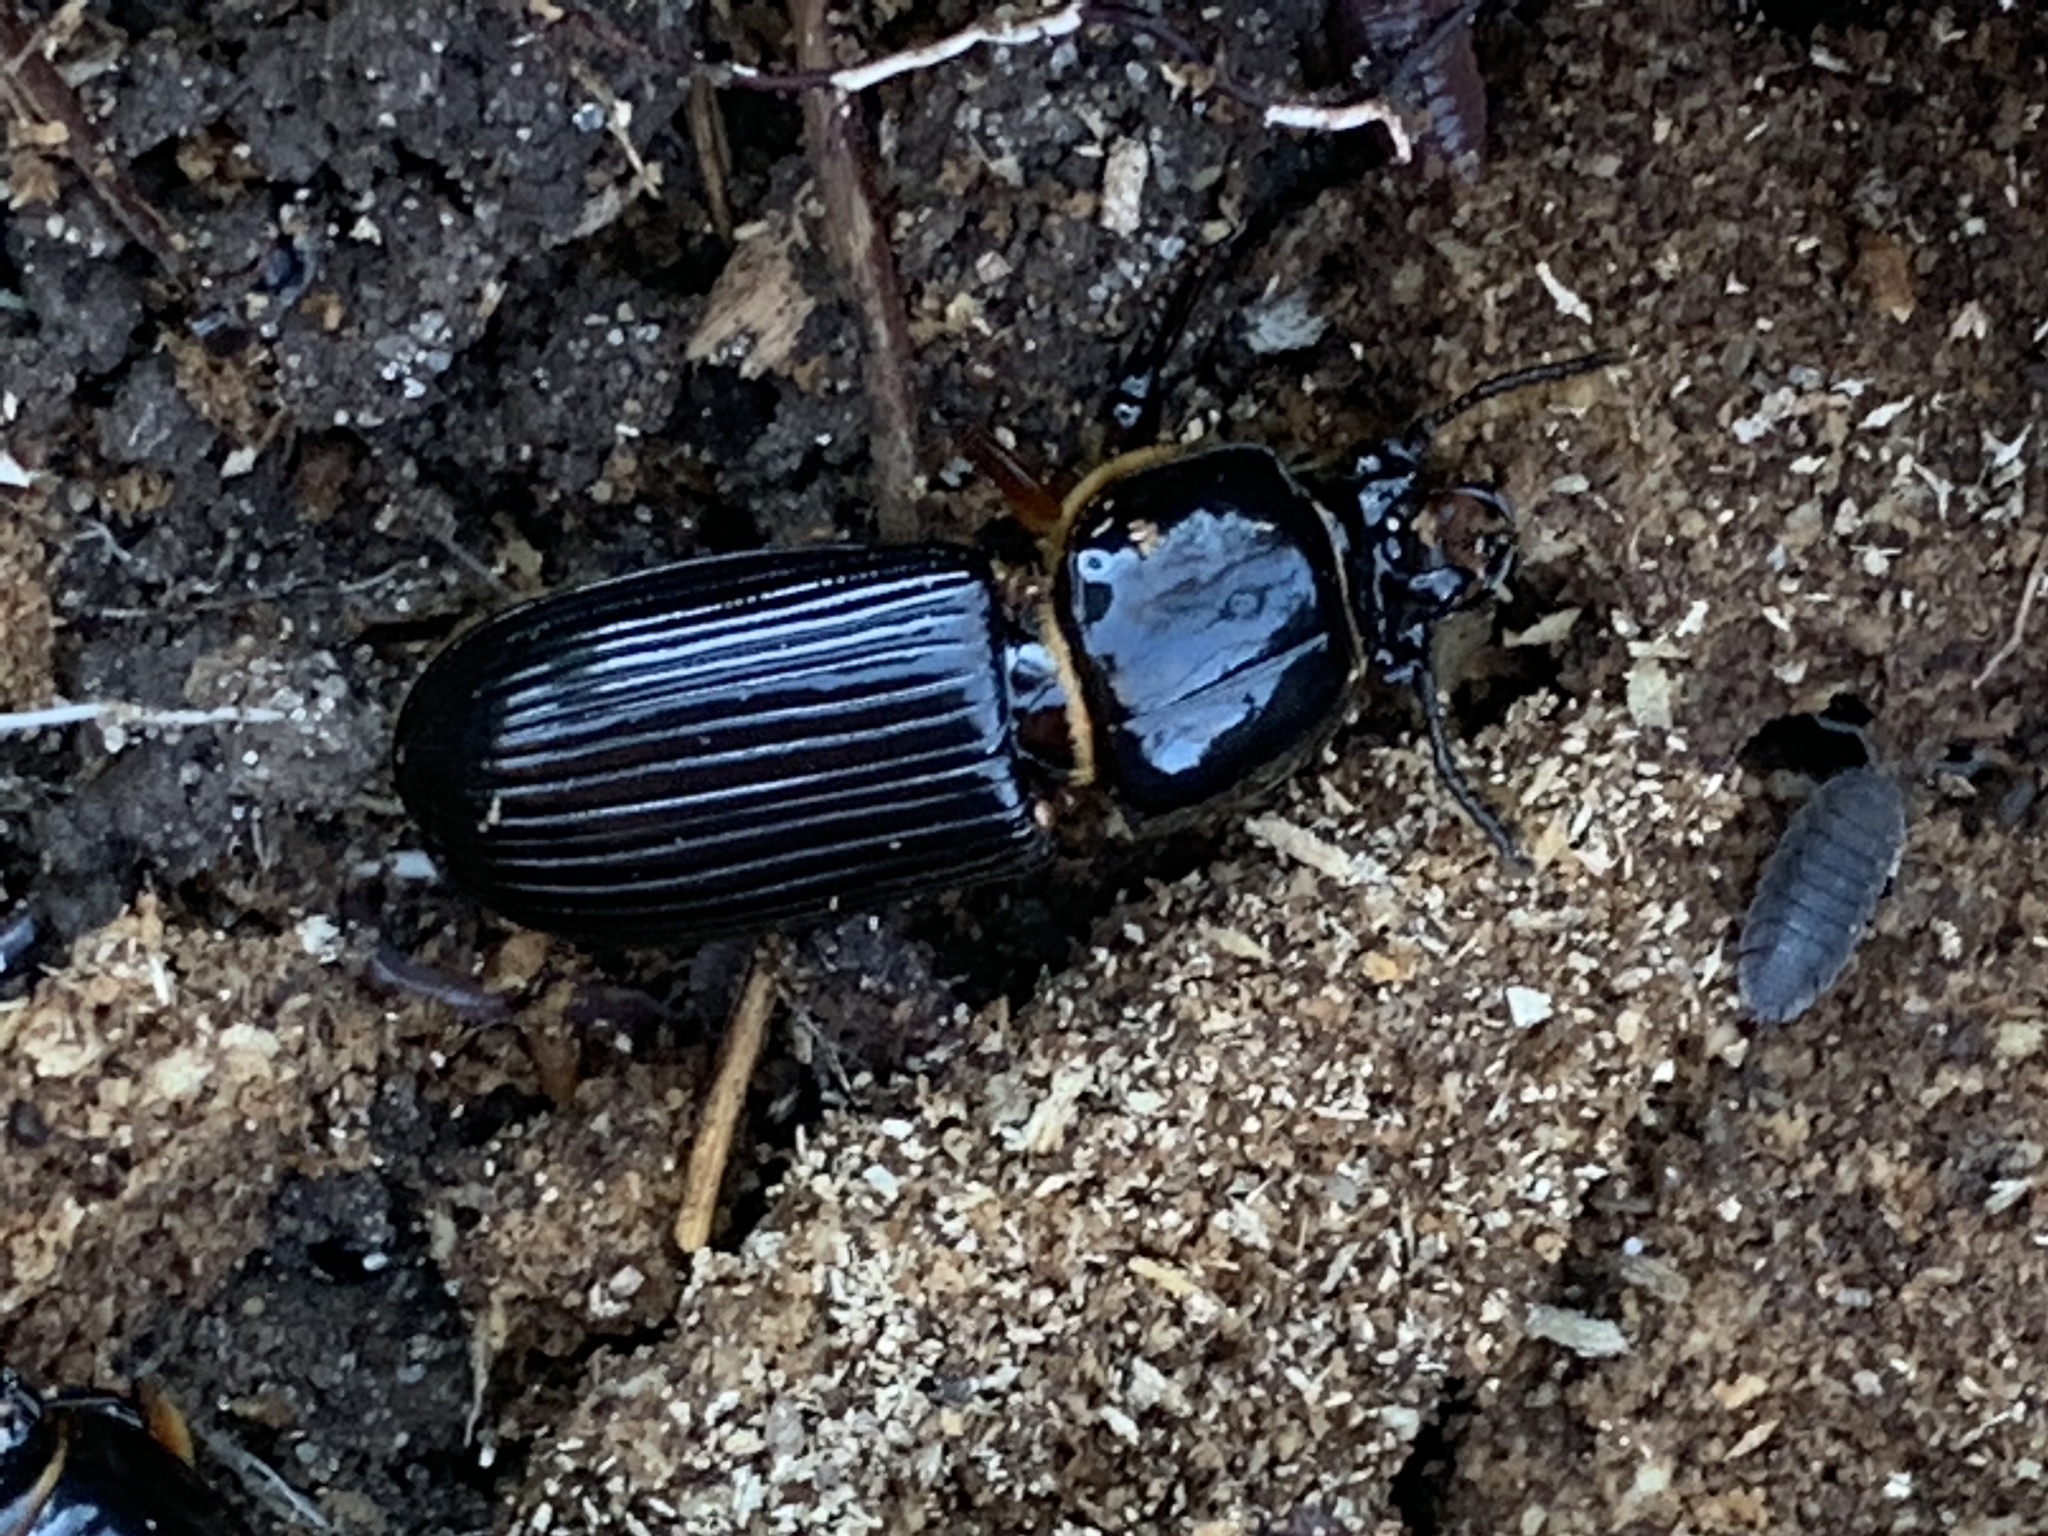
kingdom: Animalia
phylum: Arthropoda
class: Insecta
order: Coleoptera
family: Passalidae
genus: Odontotaenius
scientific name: Odontotaenius disjunctus
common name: Patent leather beetle
